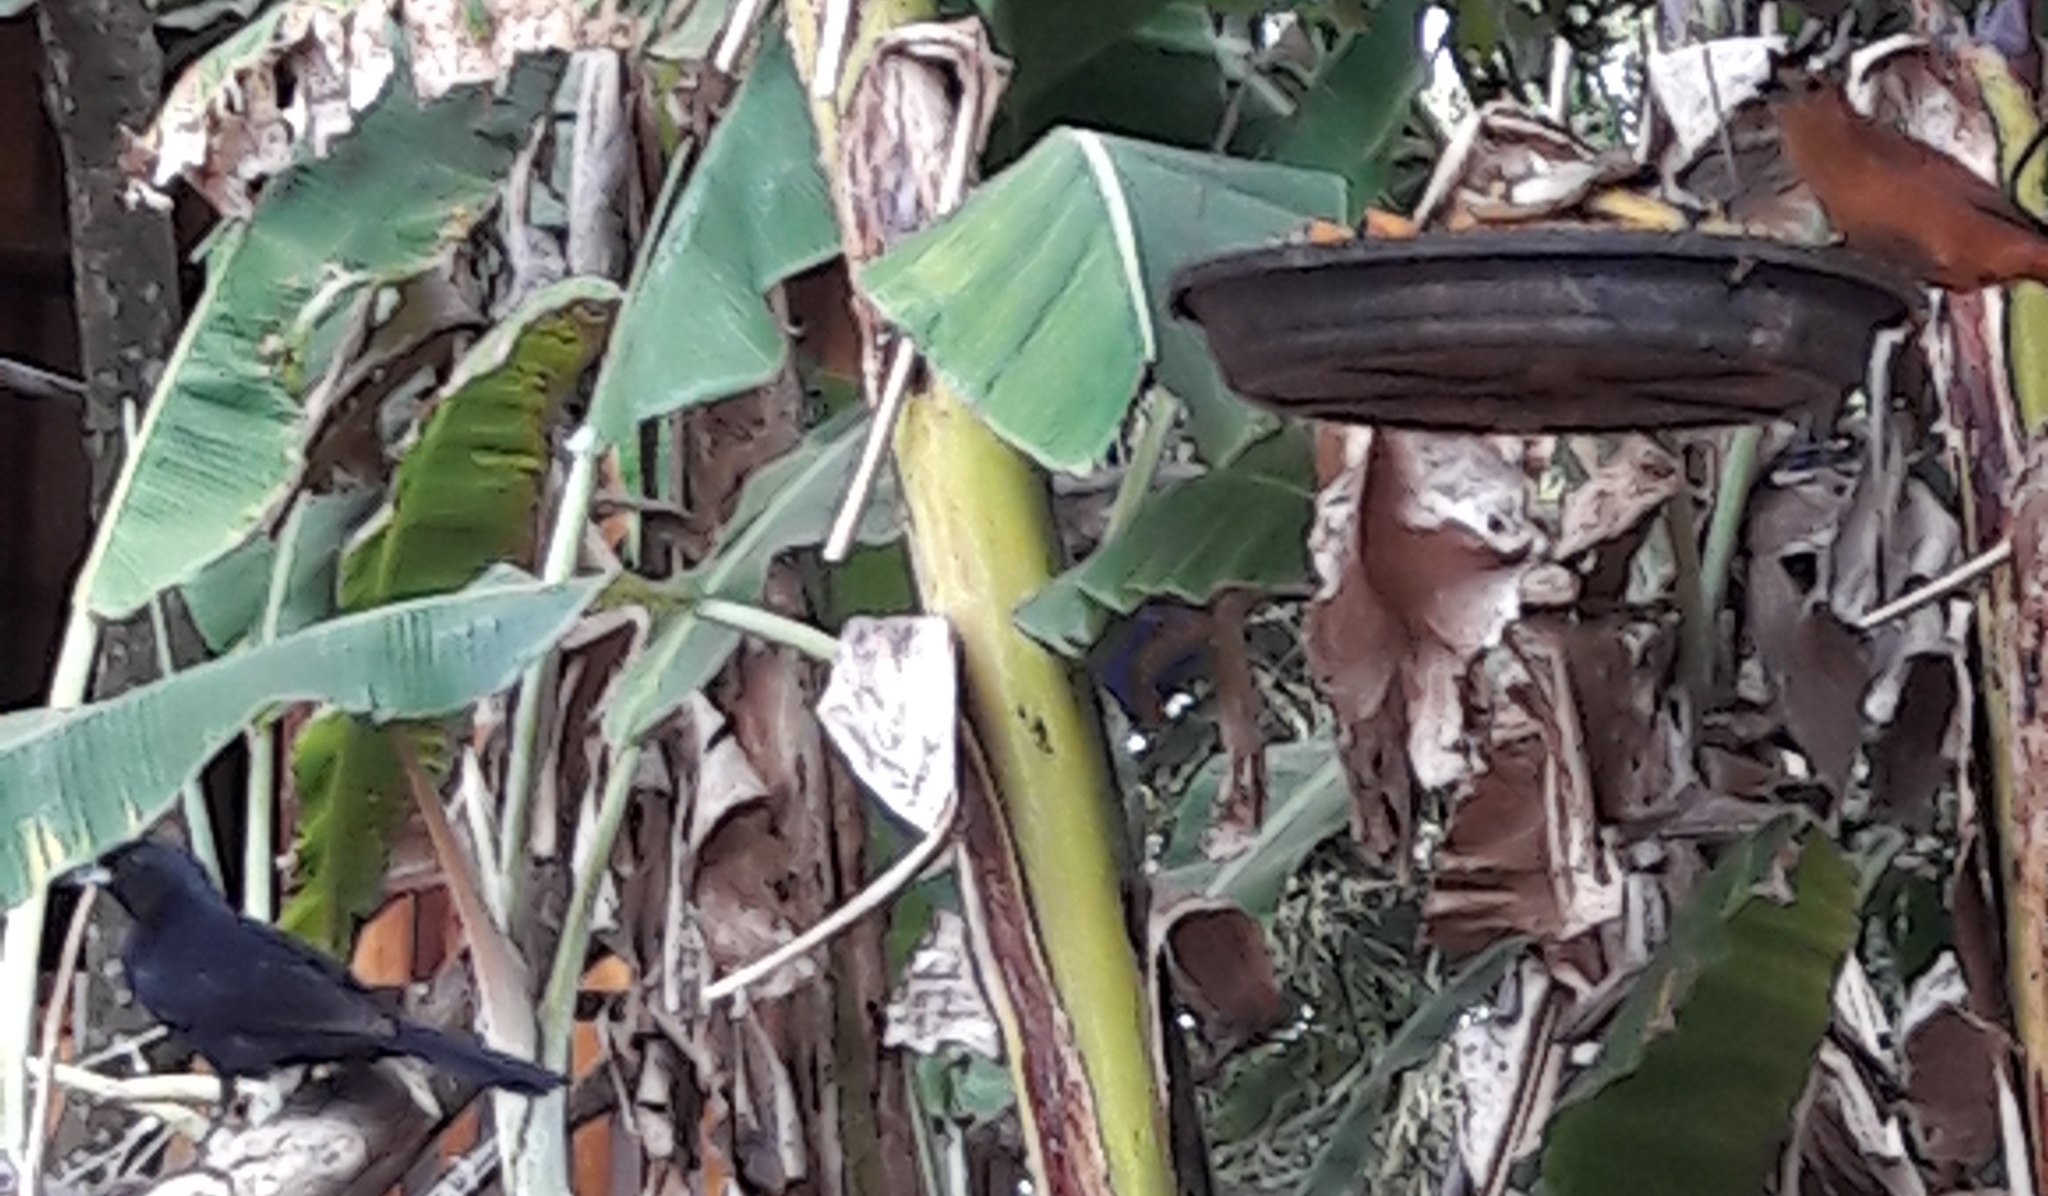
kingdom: Animalia
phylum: Chordata
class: Aves
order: Passeriformes
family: Thraupidae
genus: Tachyphonus
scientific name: Tachyphonus rufus
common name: White-lined tanager
